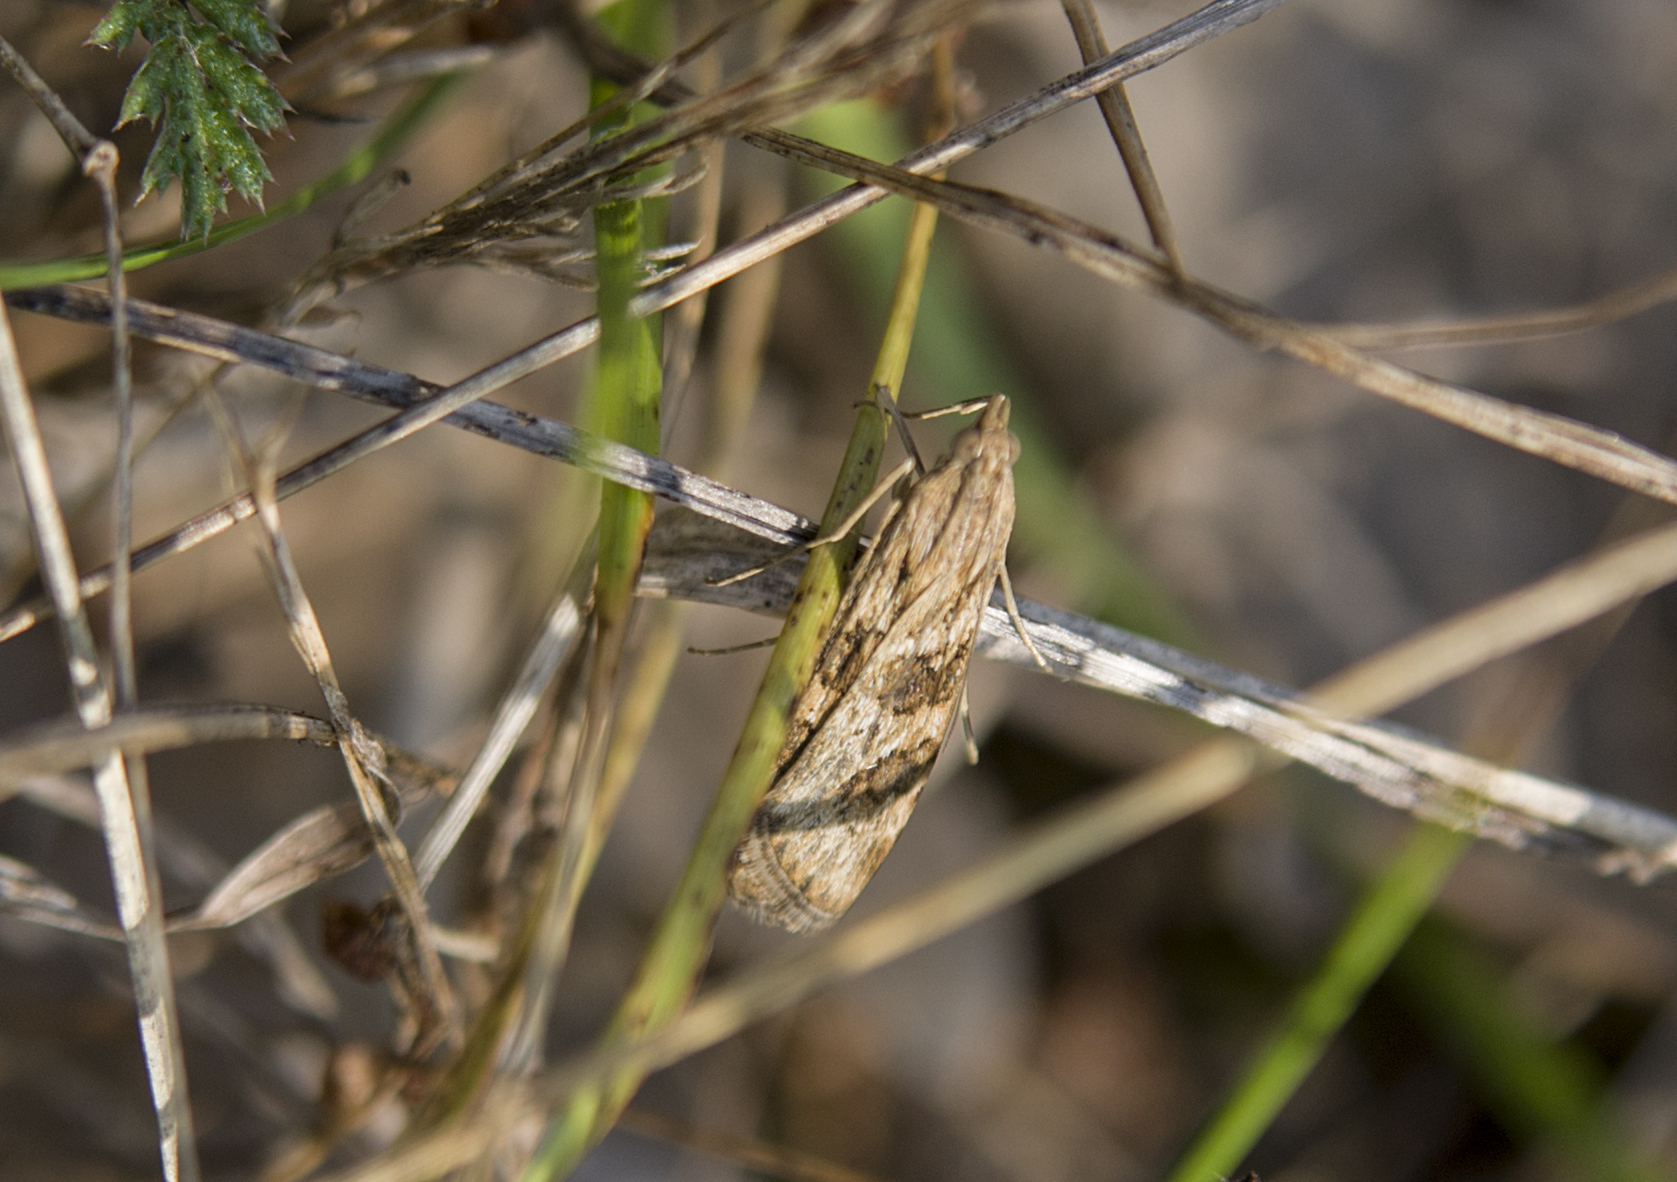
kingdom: Animalia
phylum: Arthropoda
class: Insecta
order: Lepidoptera
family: Crambidae
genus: Nomophila
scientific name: Nomophila noctuella
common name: Rush veneer
